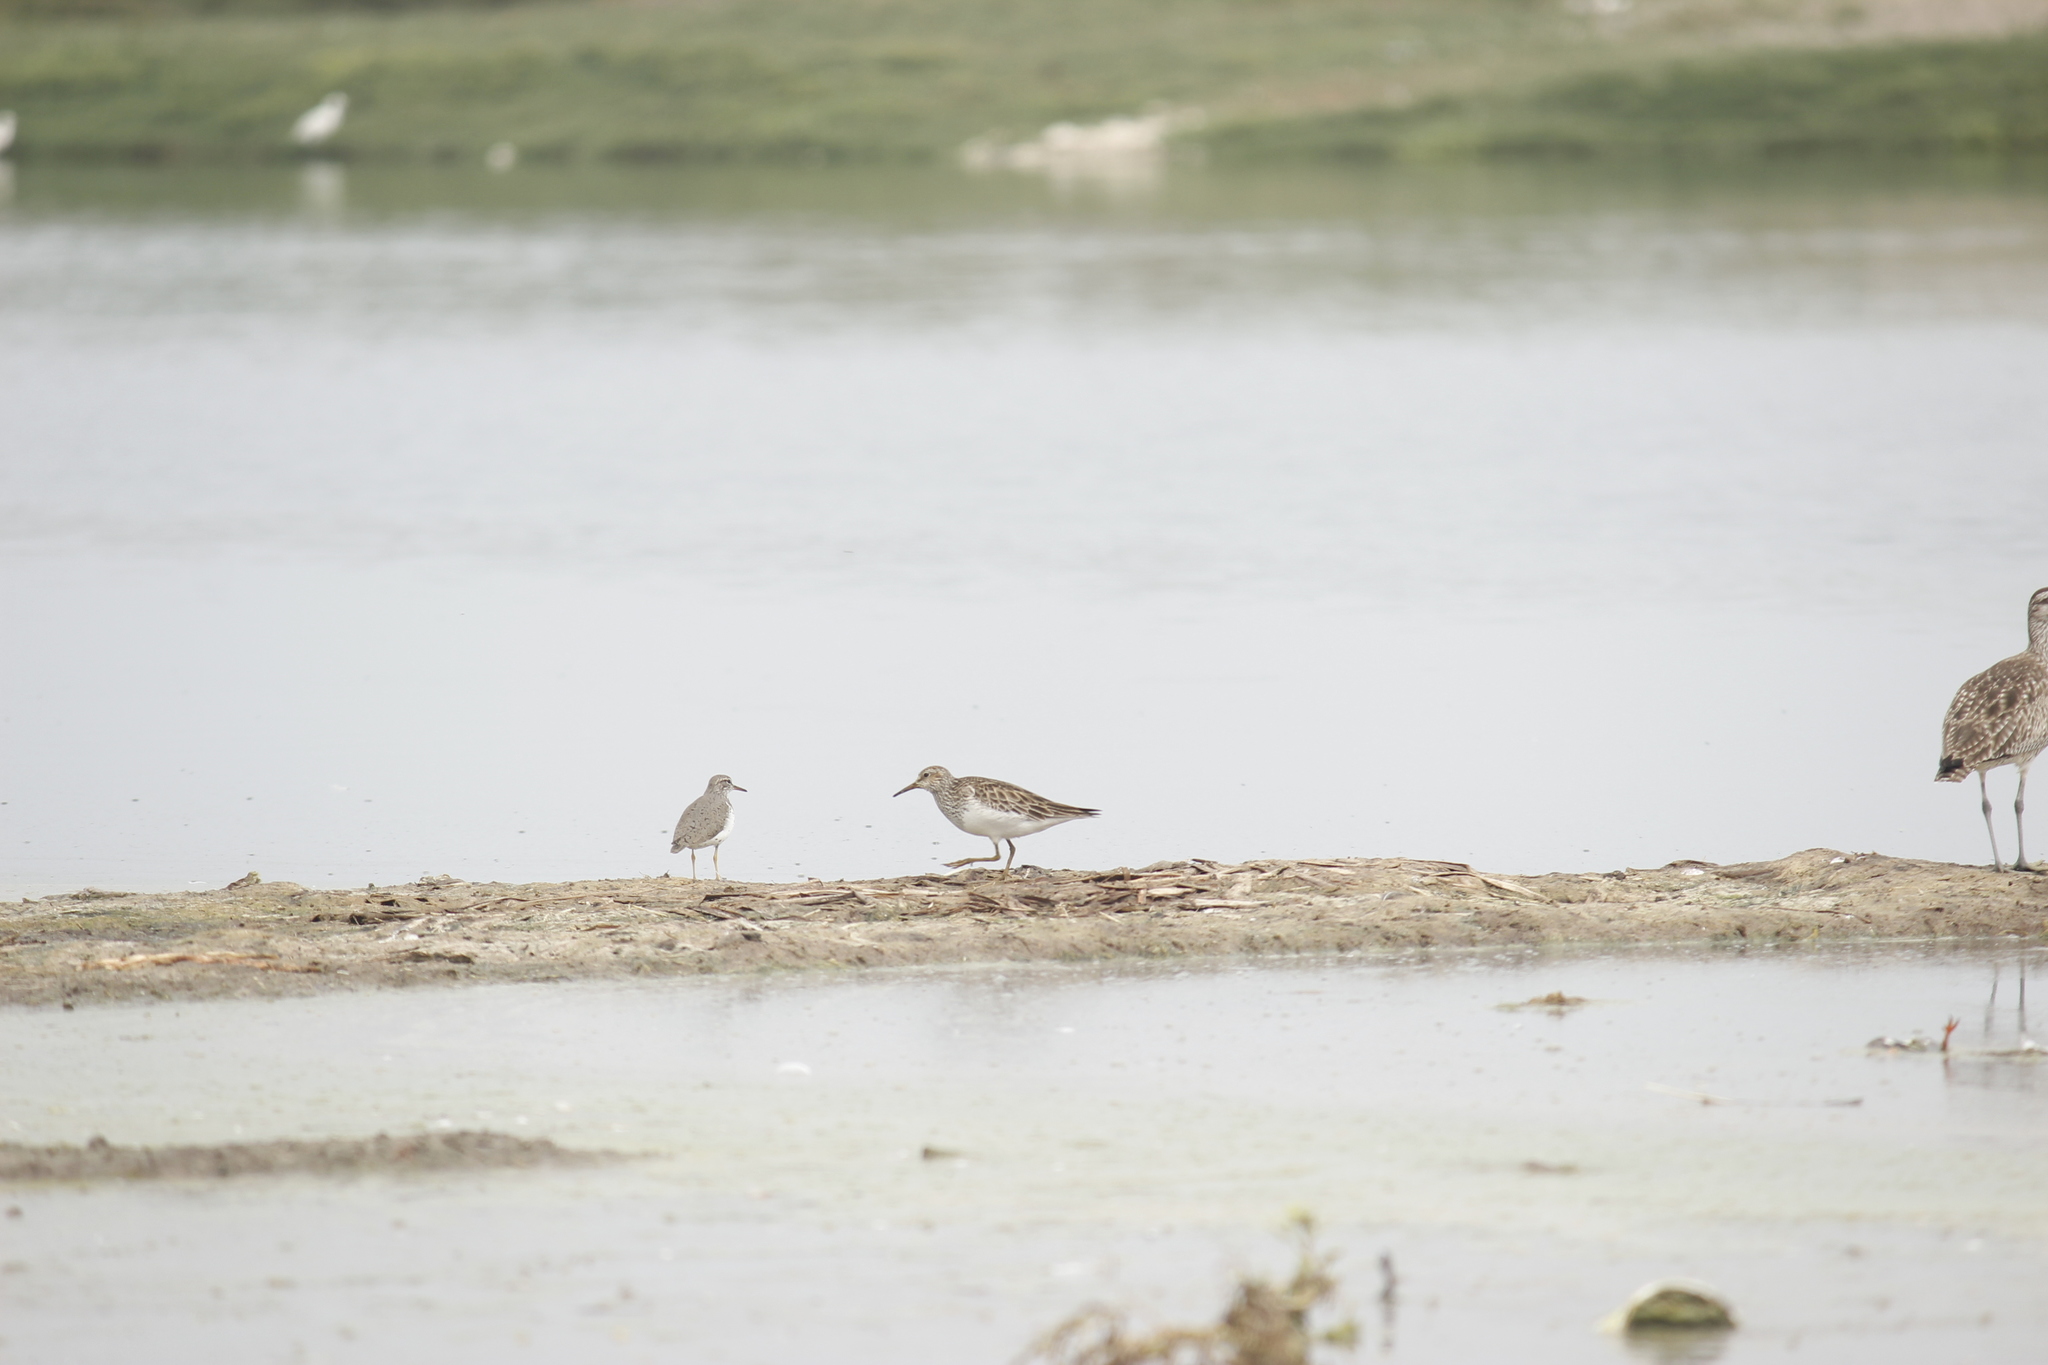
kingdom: Animalia
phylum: Chordata
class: Aves
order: Charadriiformes
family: Scolopacidae
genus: Calidris
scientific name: Calidris melanotos
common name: Pectoral sandpiper
